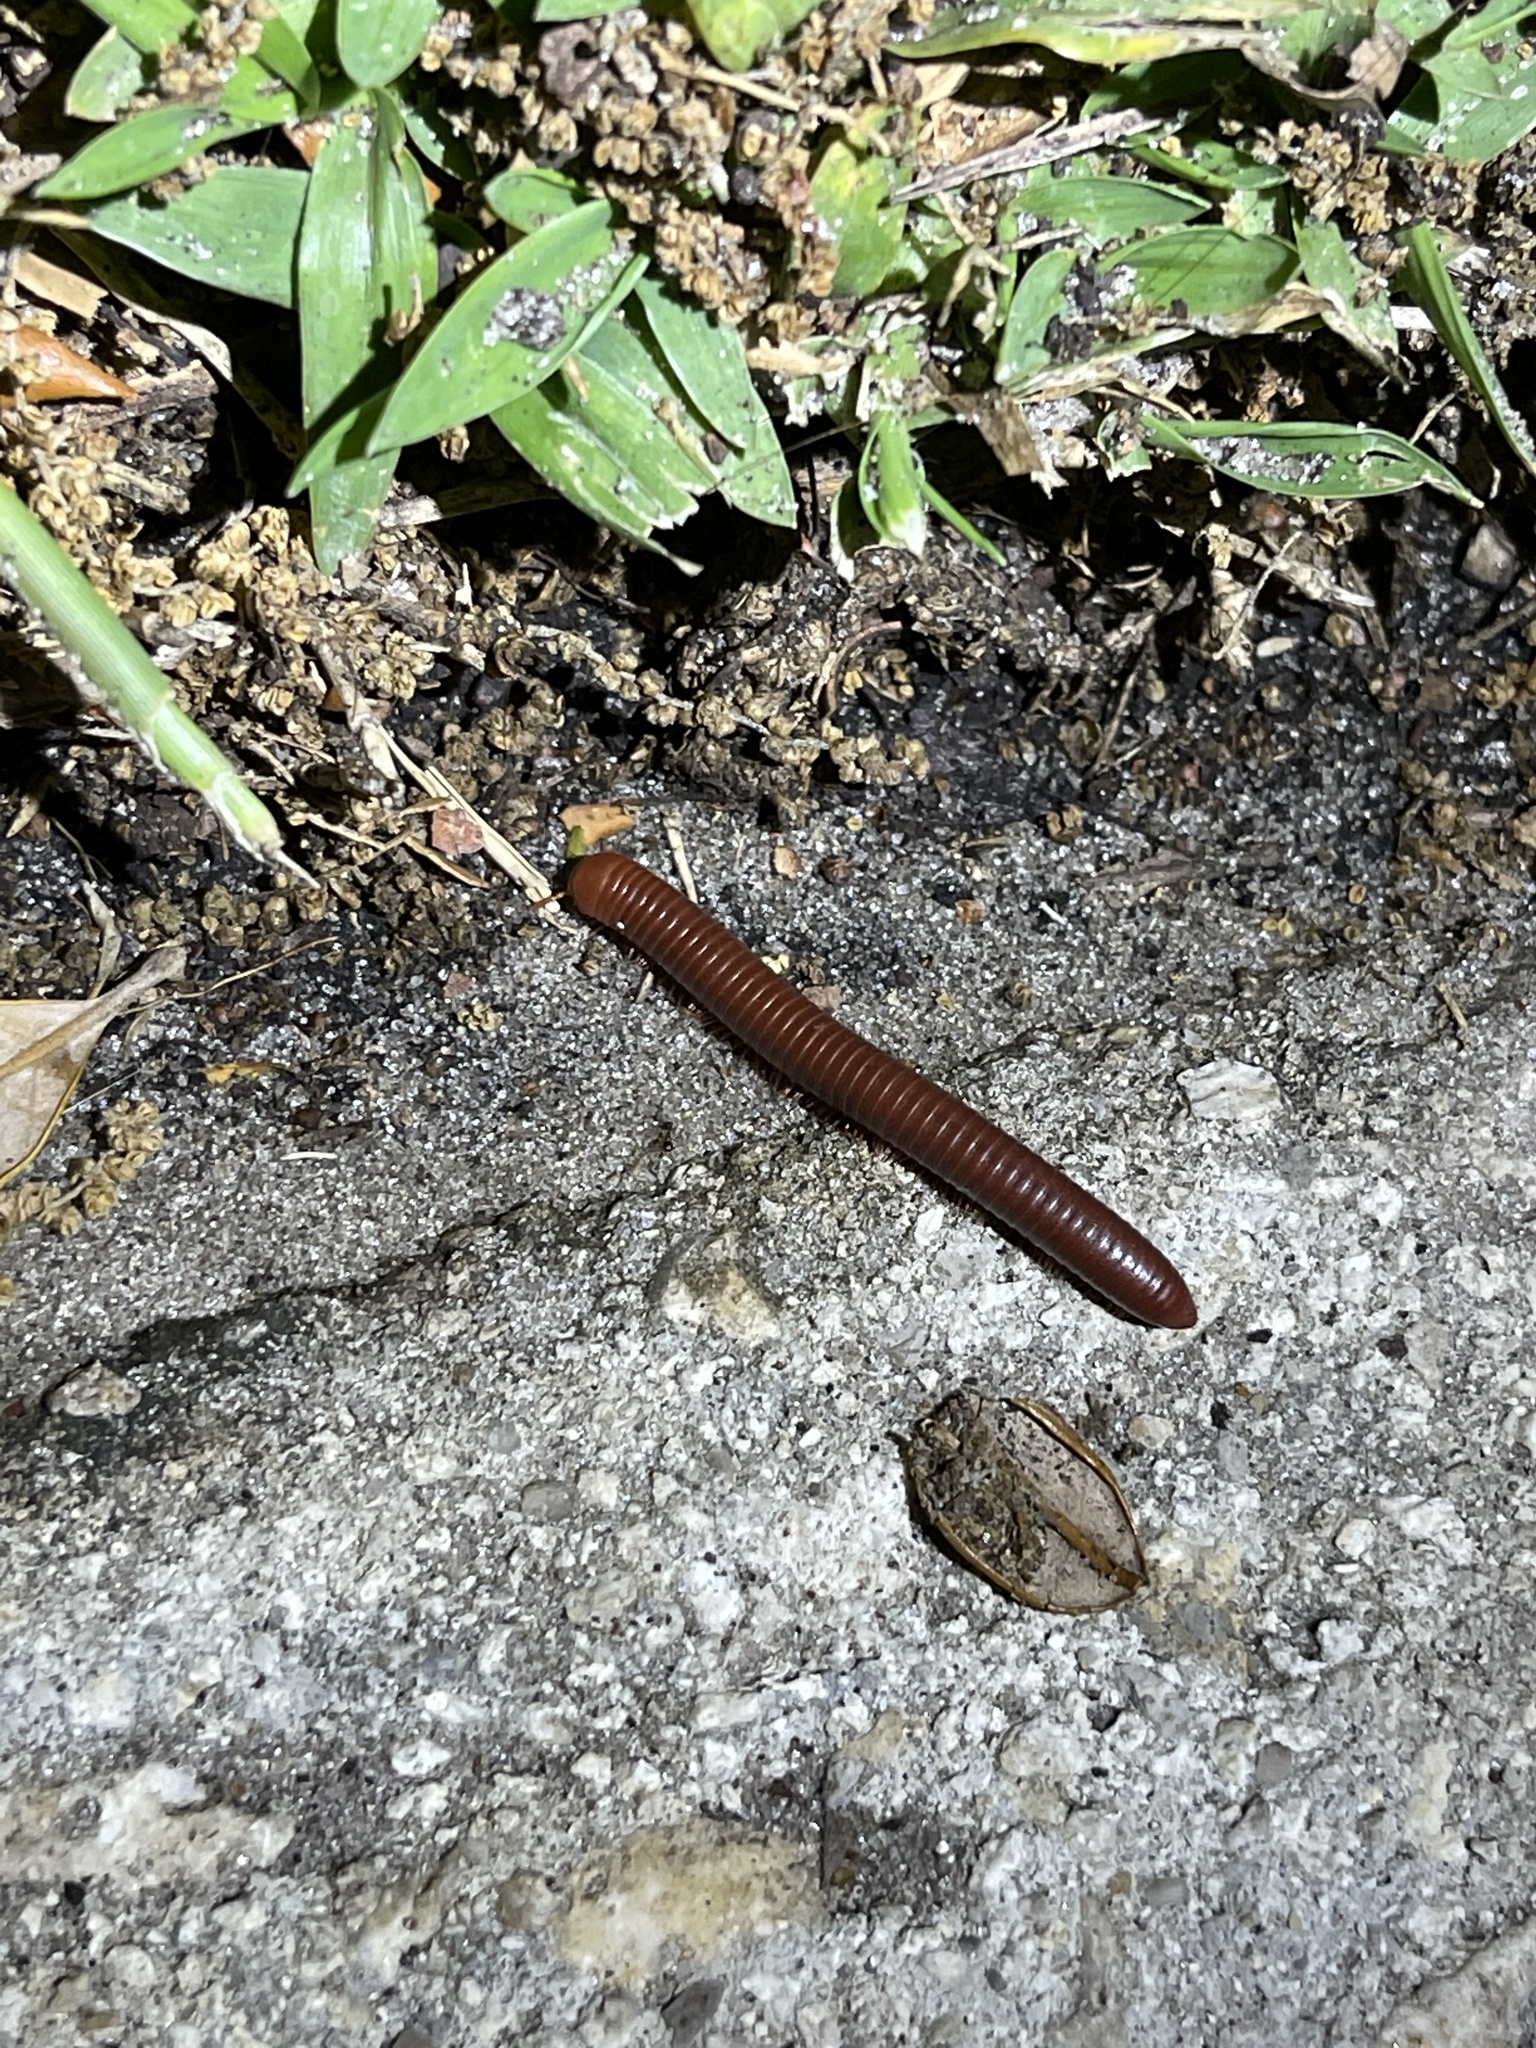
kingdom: Animalia
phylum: Arthropoda
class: Diplopoda
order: Spirobolida
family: Pachybolidae
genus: Trigoniulus
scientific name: Trigoniulus corallinus
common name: Millipede
